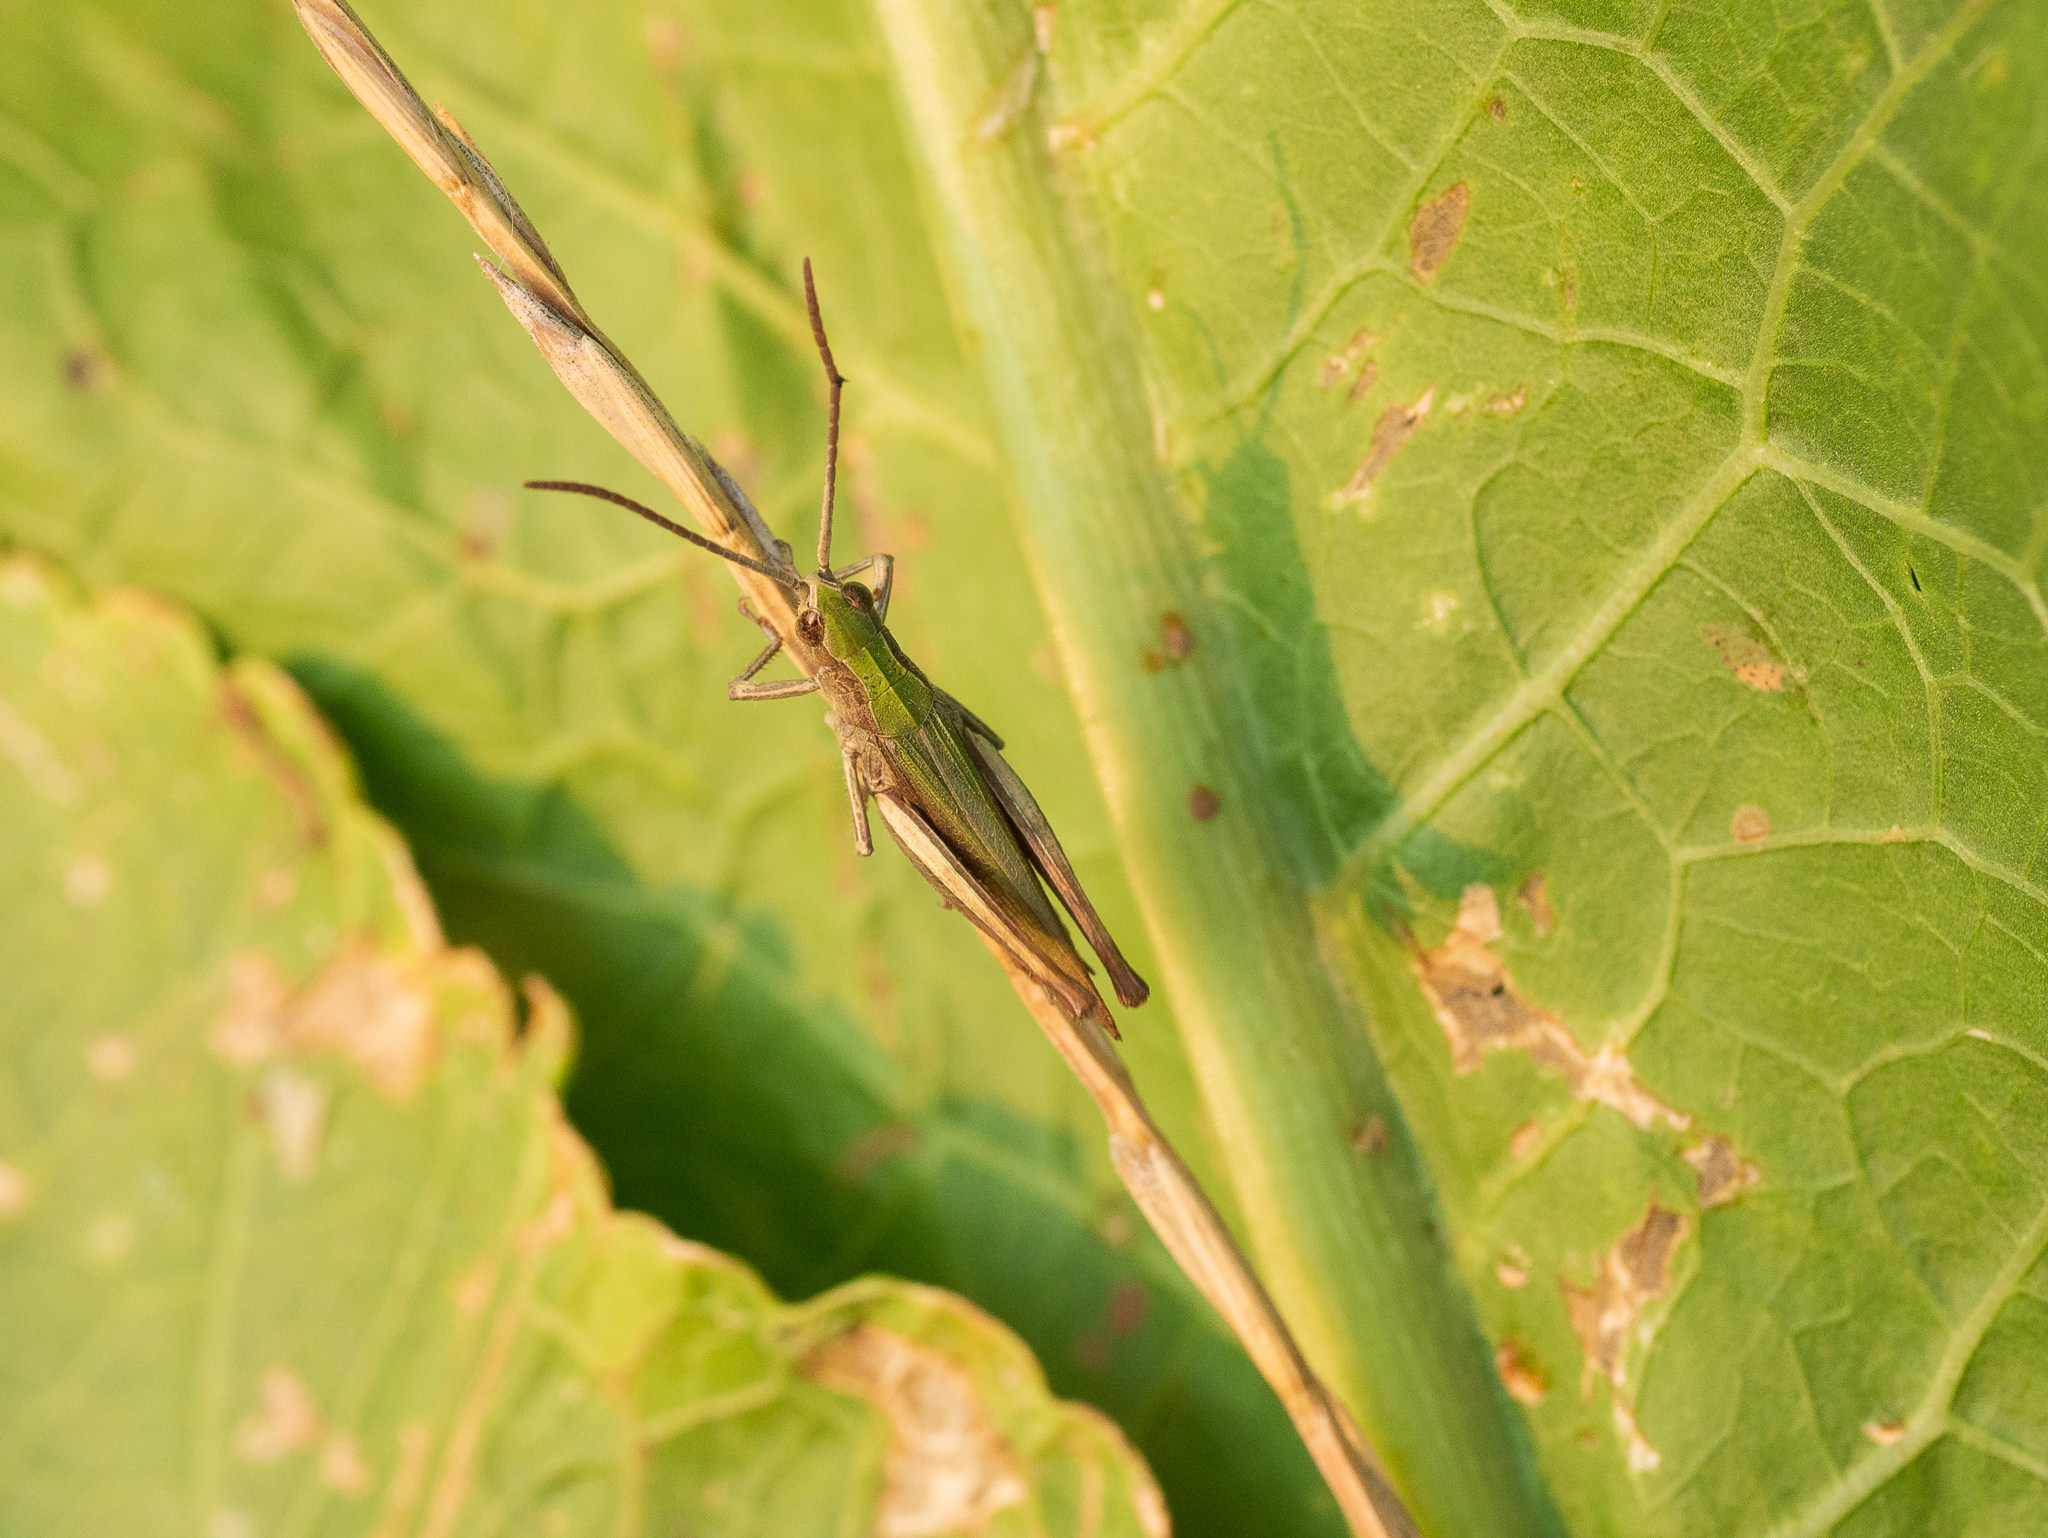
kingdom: Animalia
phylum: Arthropoda
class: Insecta
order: Orthoptera
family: Acrididae
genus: Chorthippus
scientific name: Chorthippus dorsatus
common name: Steppe grasshopper
